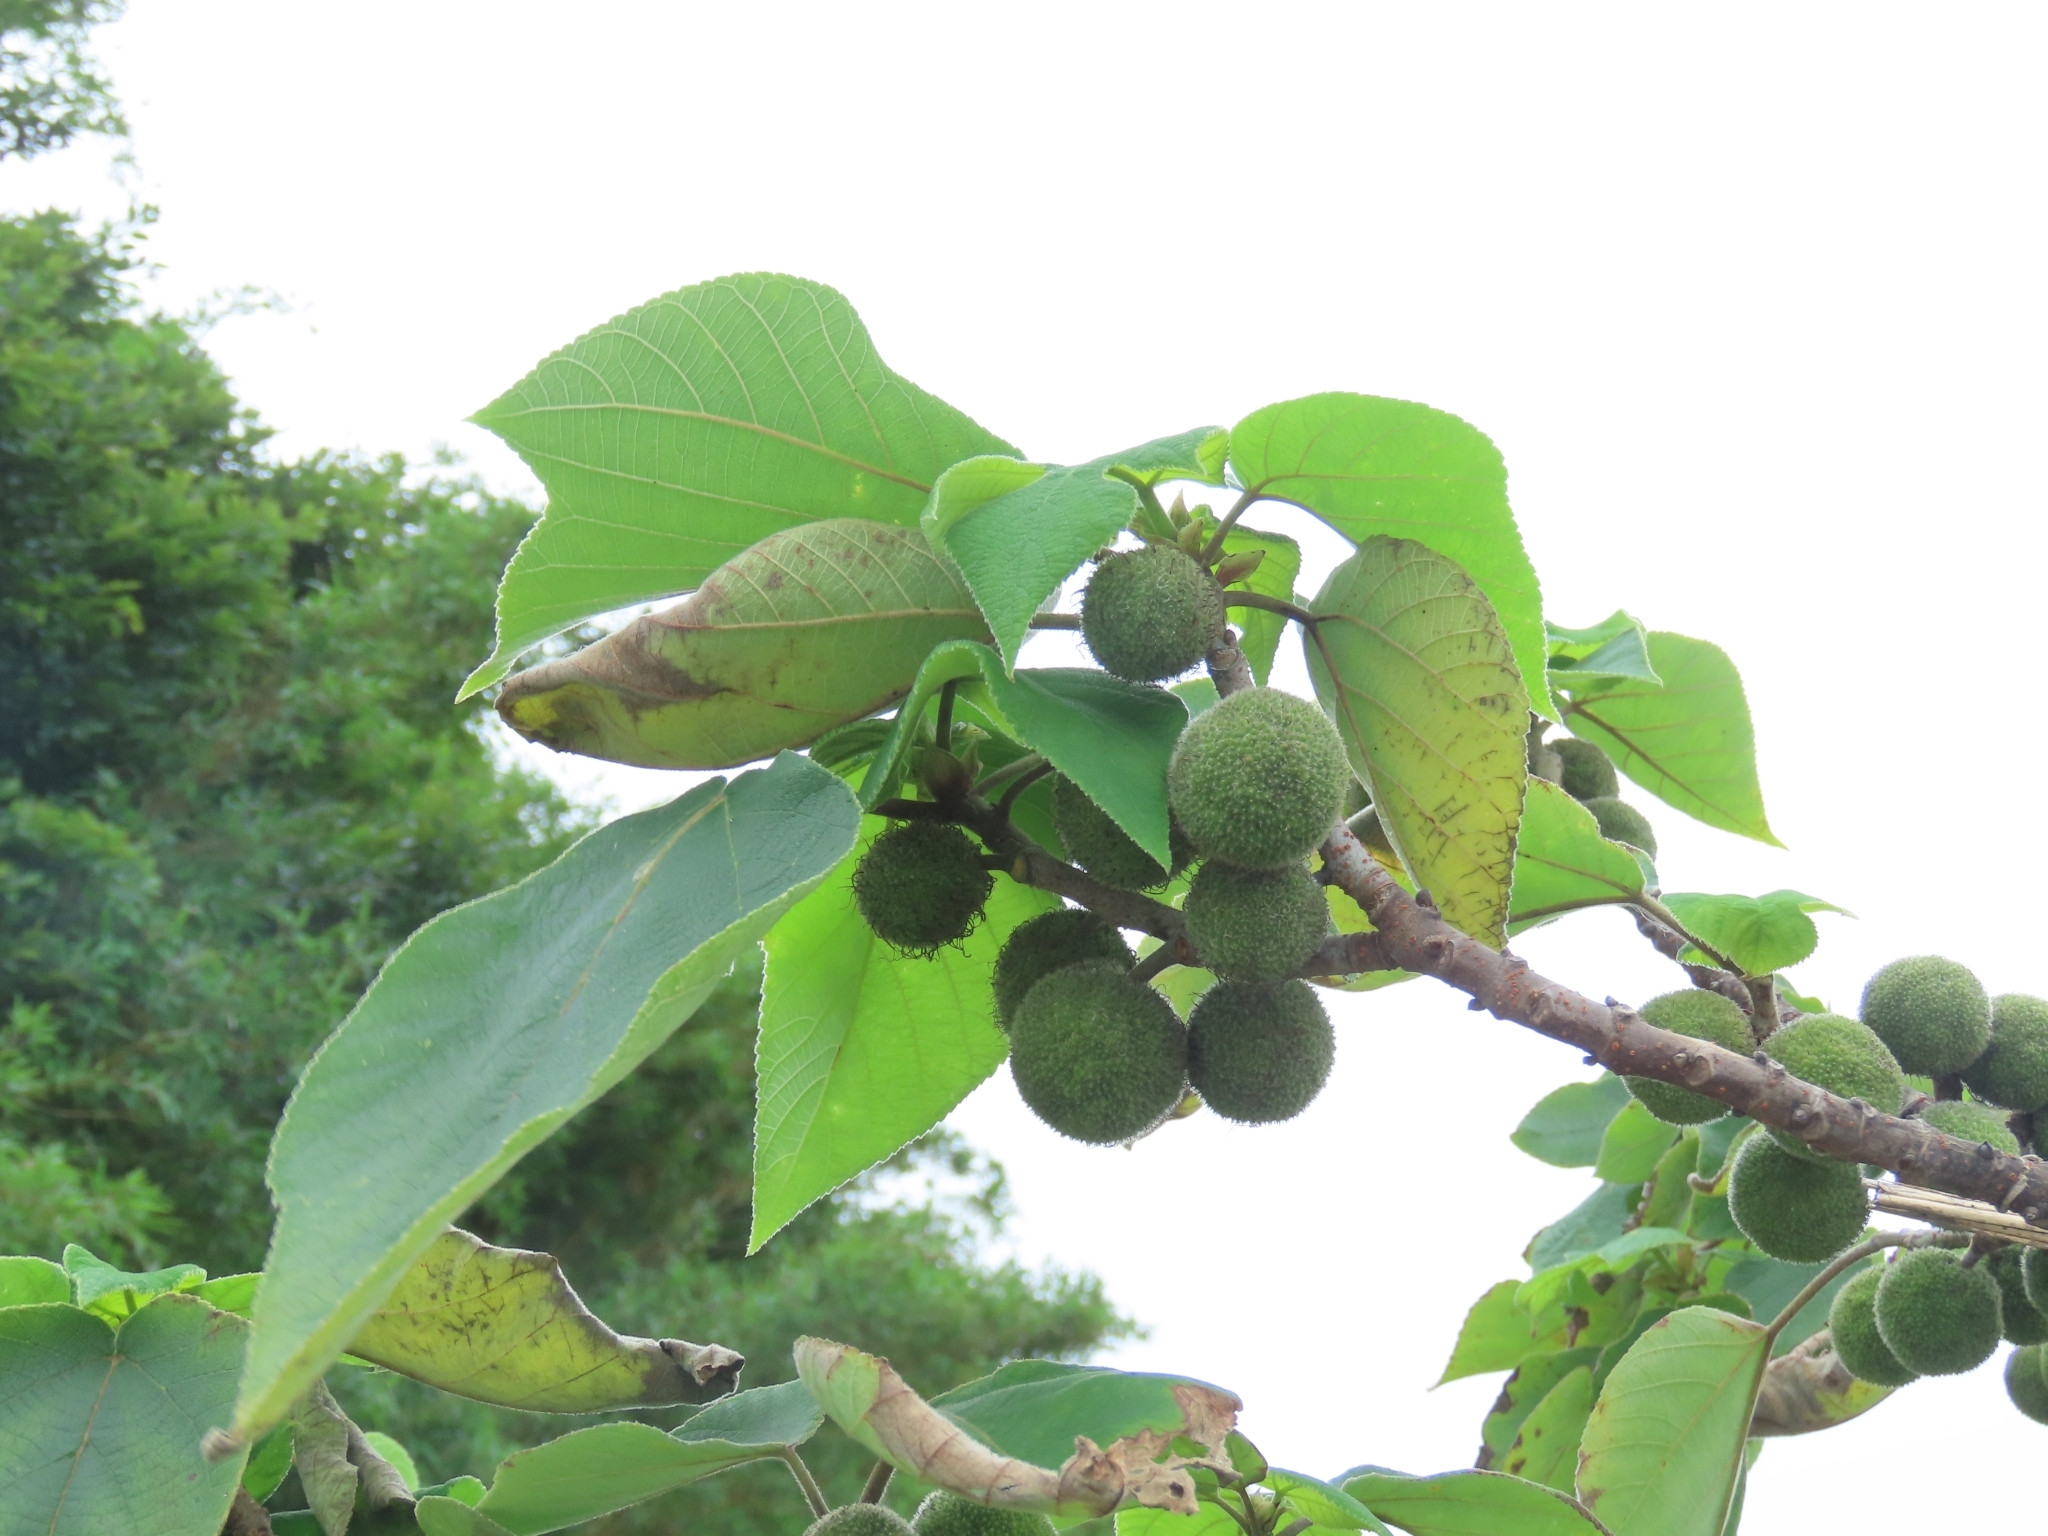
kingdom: Plantae
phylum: Tracheophyta
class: Magnoliopsida
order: Rosales
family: Moraceae
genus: Broussonetia
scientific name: Broussonetia papyrifera
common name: Paper mulberry
